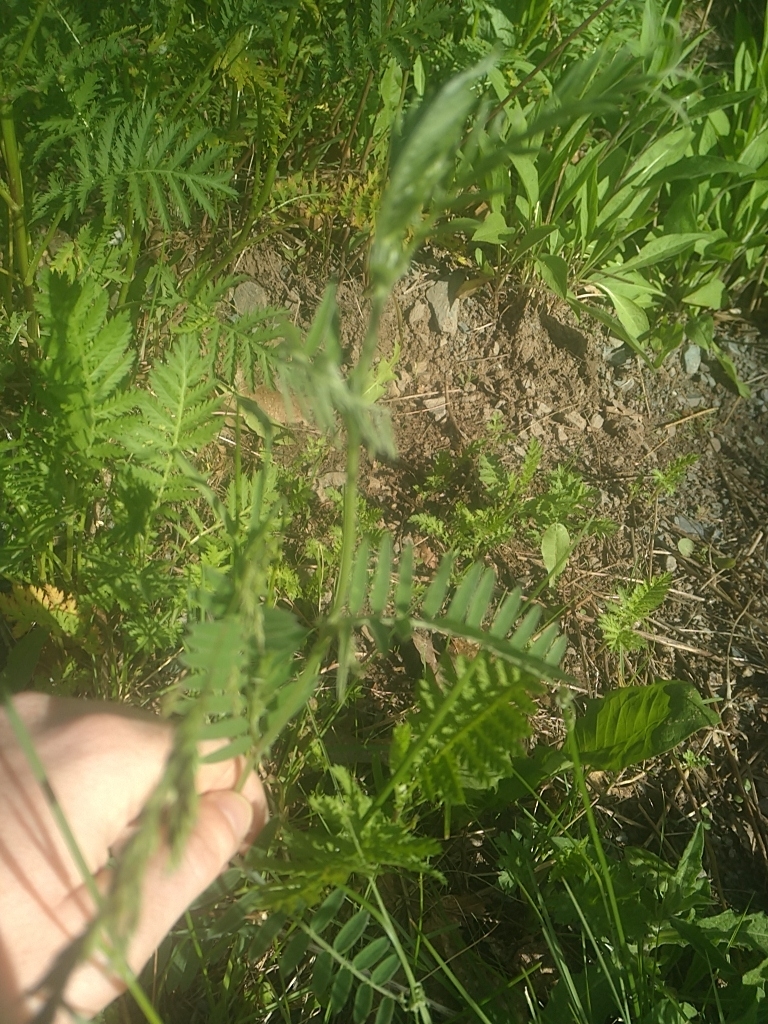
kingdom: Plantae
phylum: Tracheophyta
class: Magnoliopsida
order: Fabales
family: Fabaceae
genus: Vicia
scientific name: Vicia cracca
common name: Bird vetch
